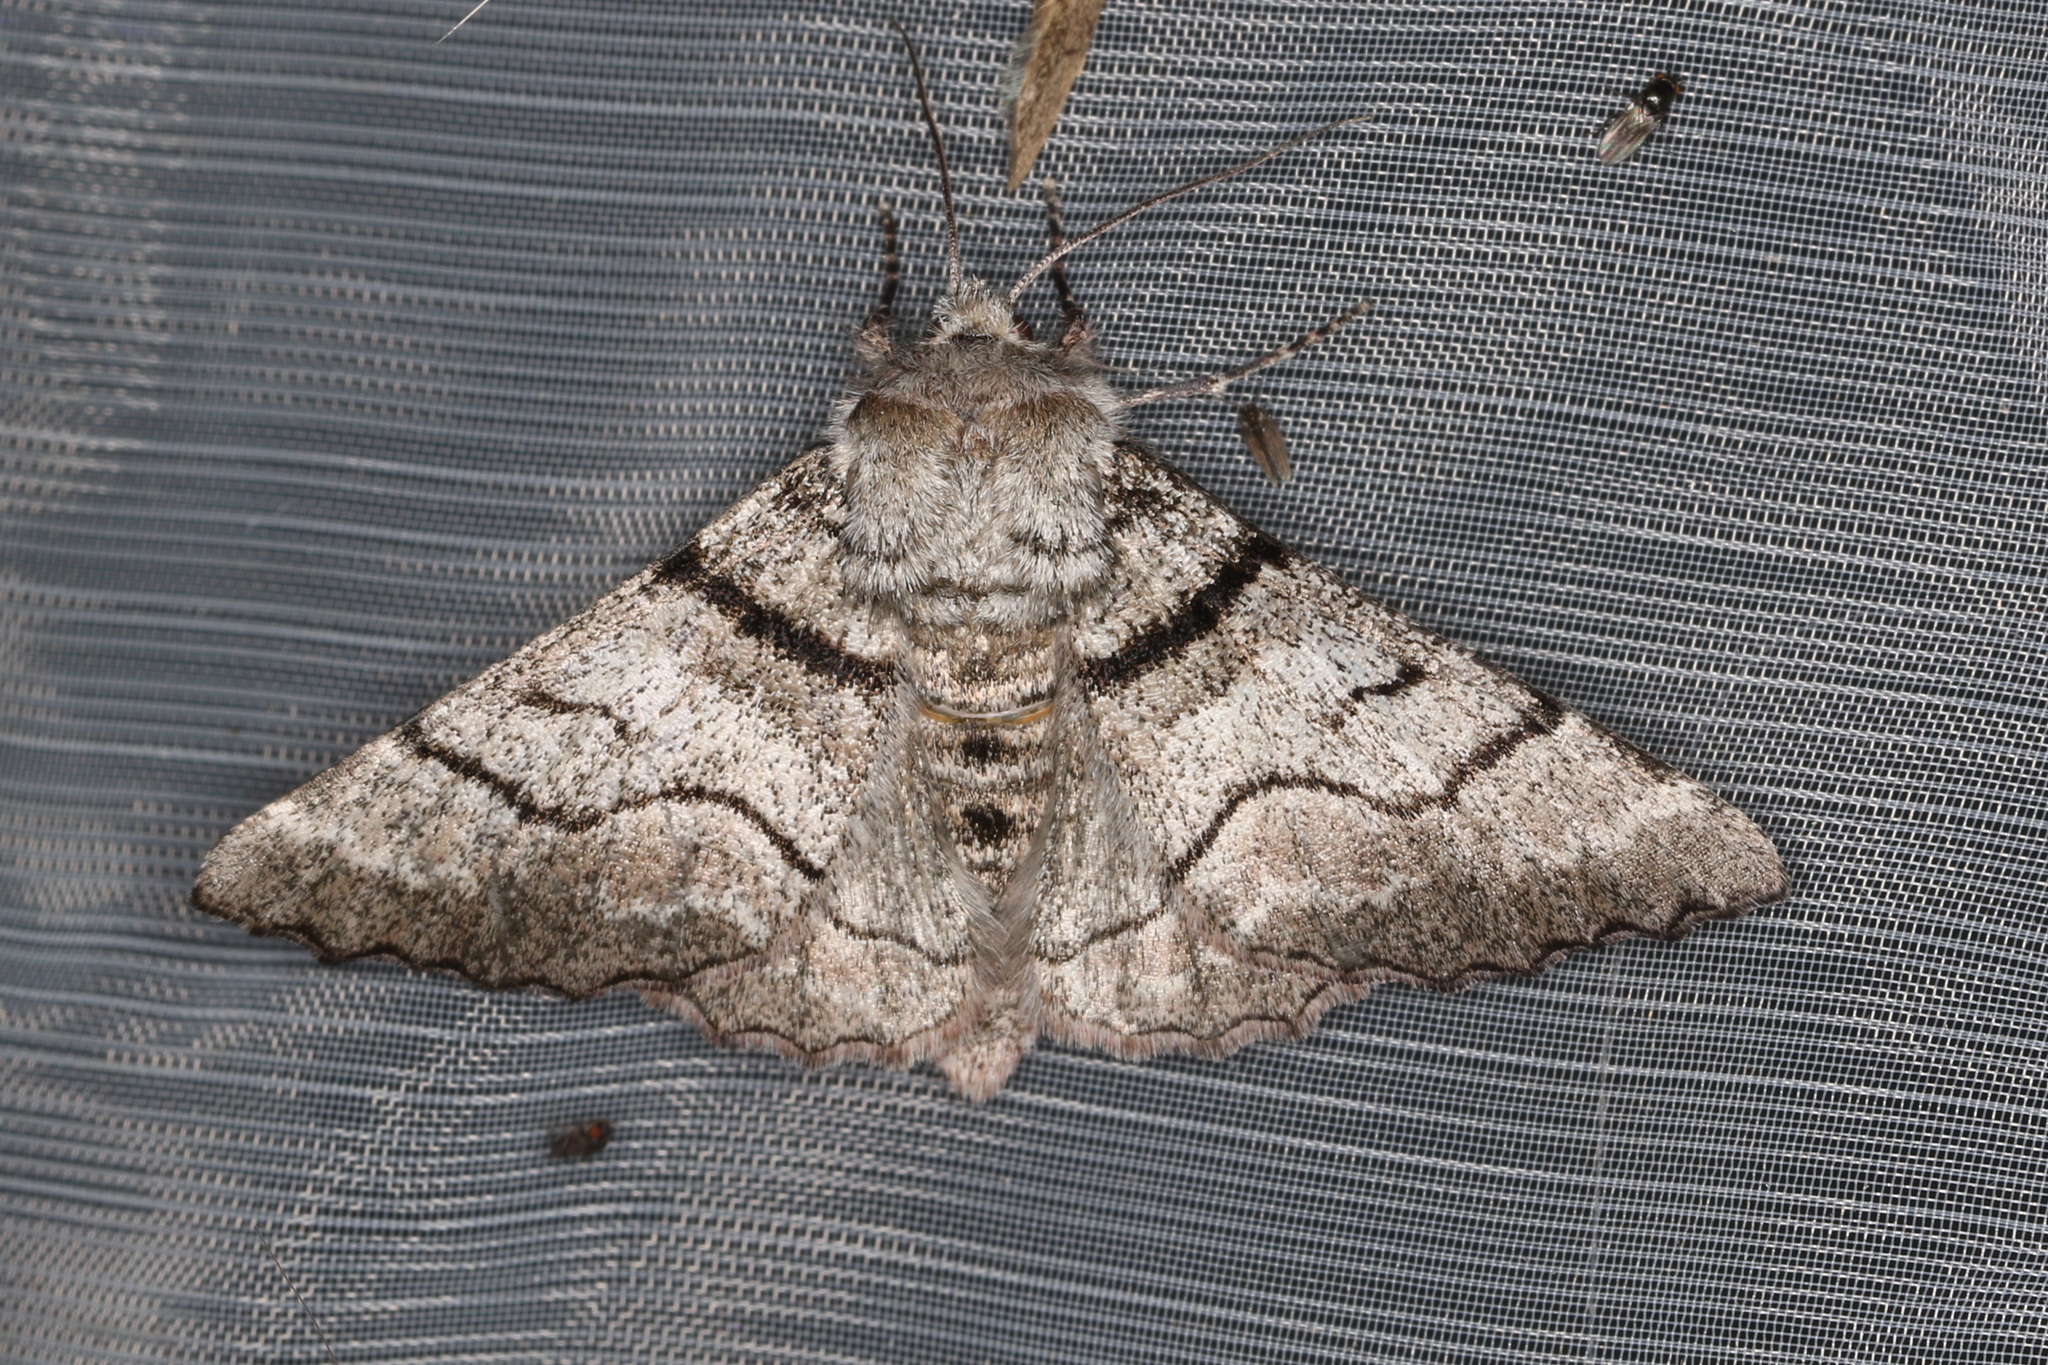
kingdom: Animalia
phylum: Arthropoda
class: Insecta
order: Lepidoptera
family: Geometridae
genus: Hypobapta
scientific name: Hypobapta diffundens
